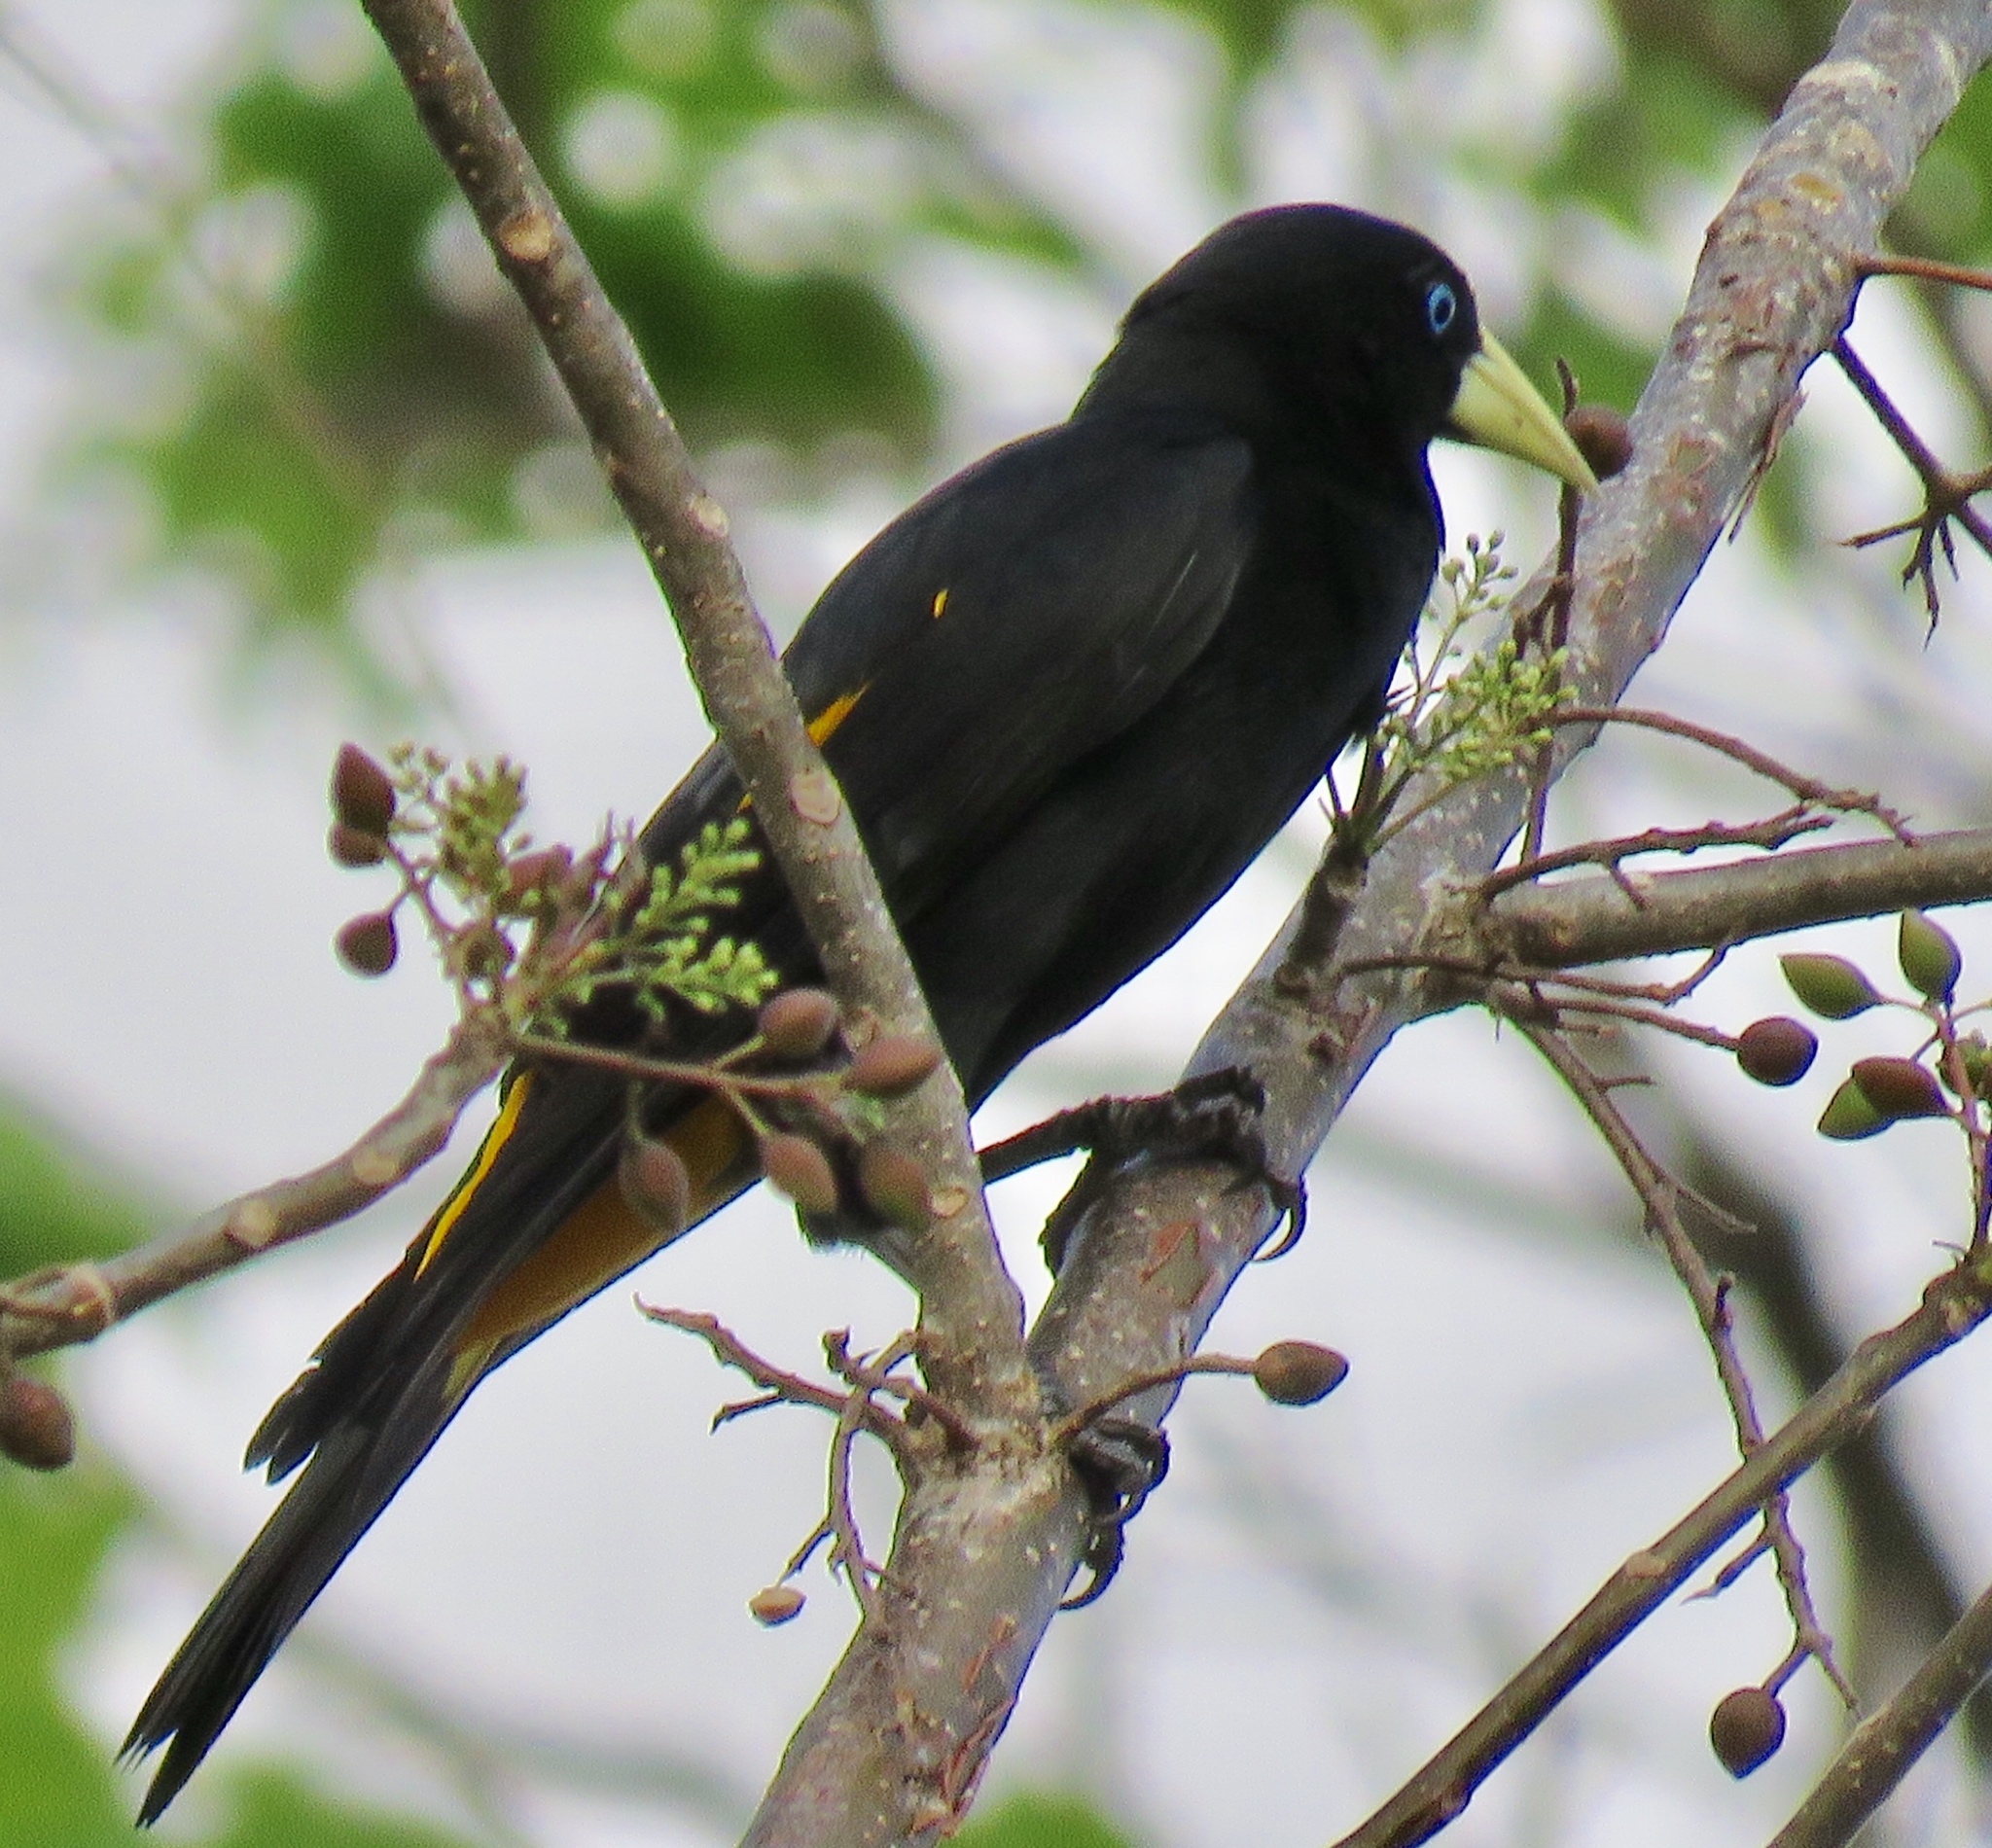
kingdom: Animalia
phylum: Chordata
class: Aves
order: Passeriformes
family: Icteridae
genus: Cacicus
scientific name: Cacicus cela
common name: Yellow-rumped cacique
